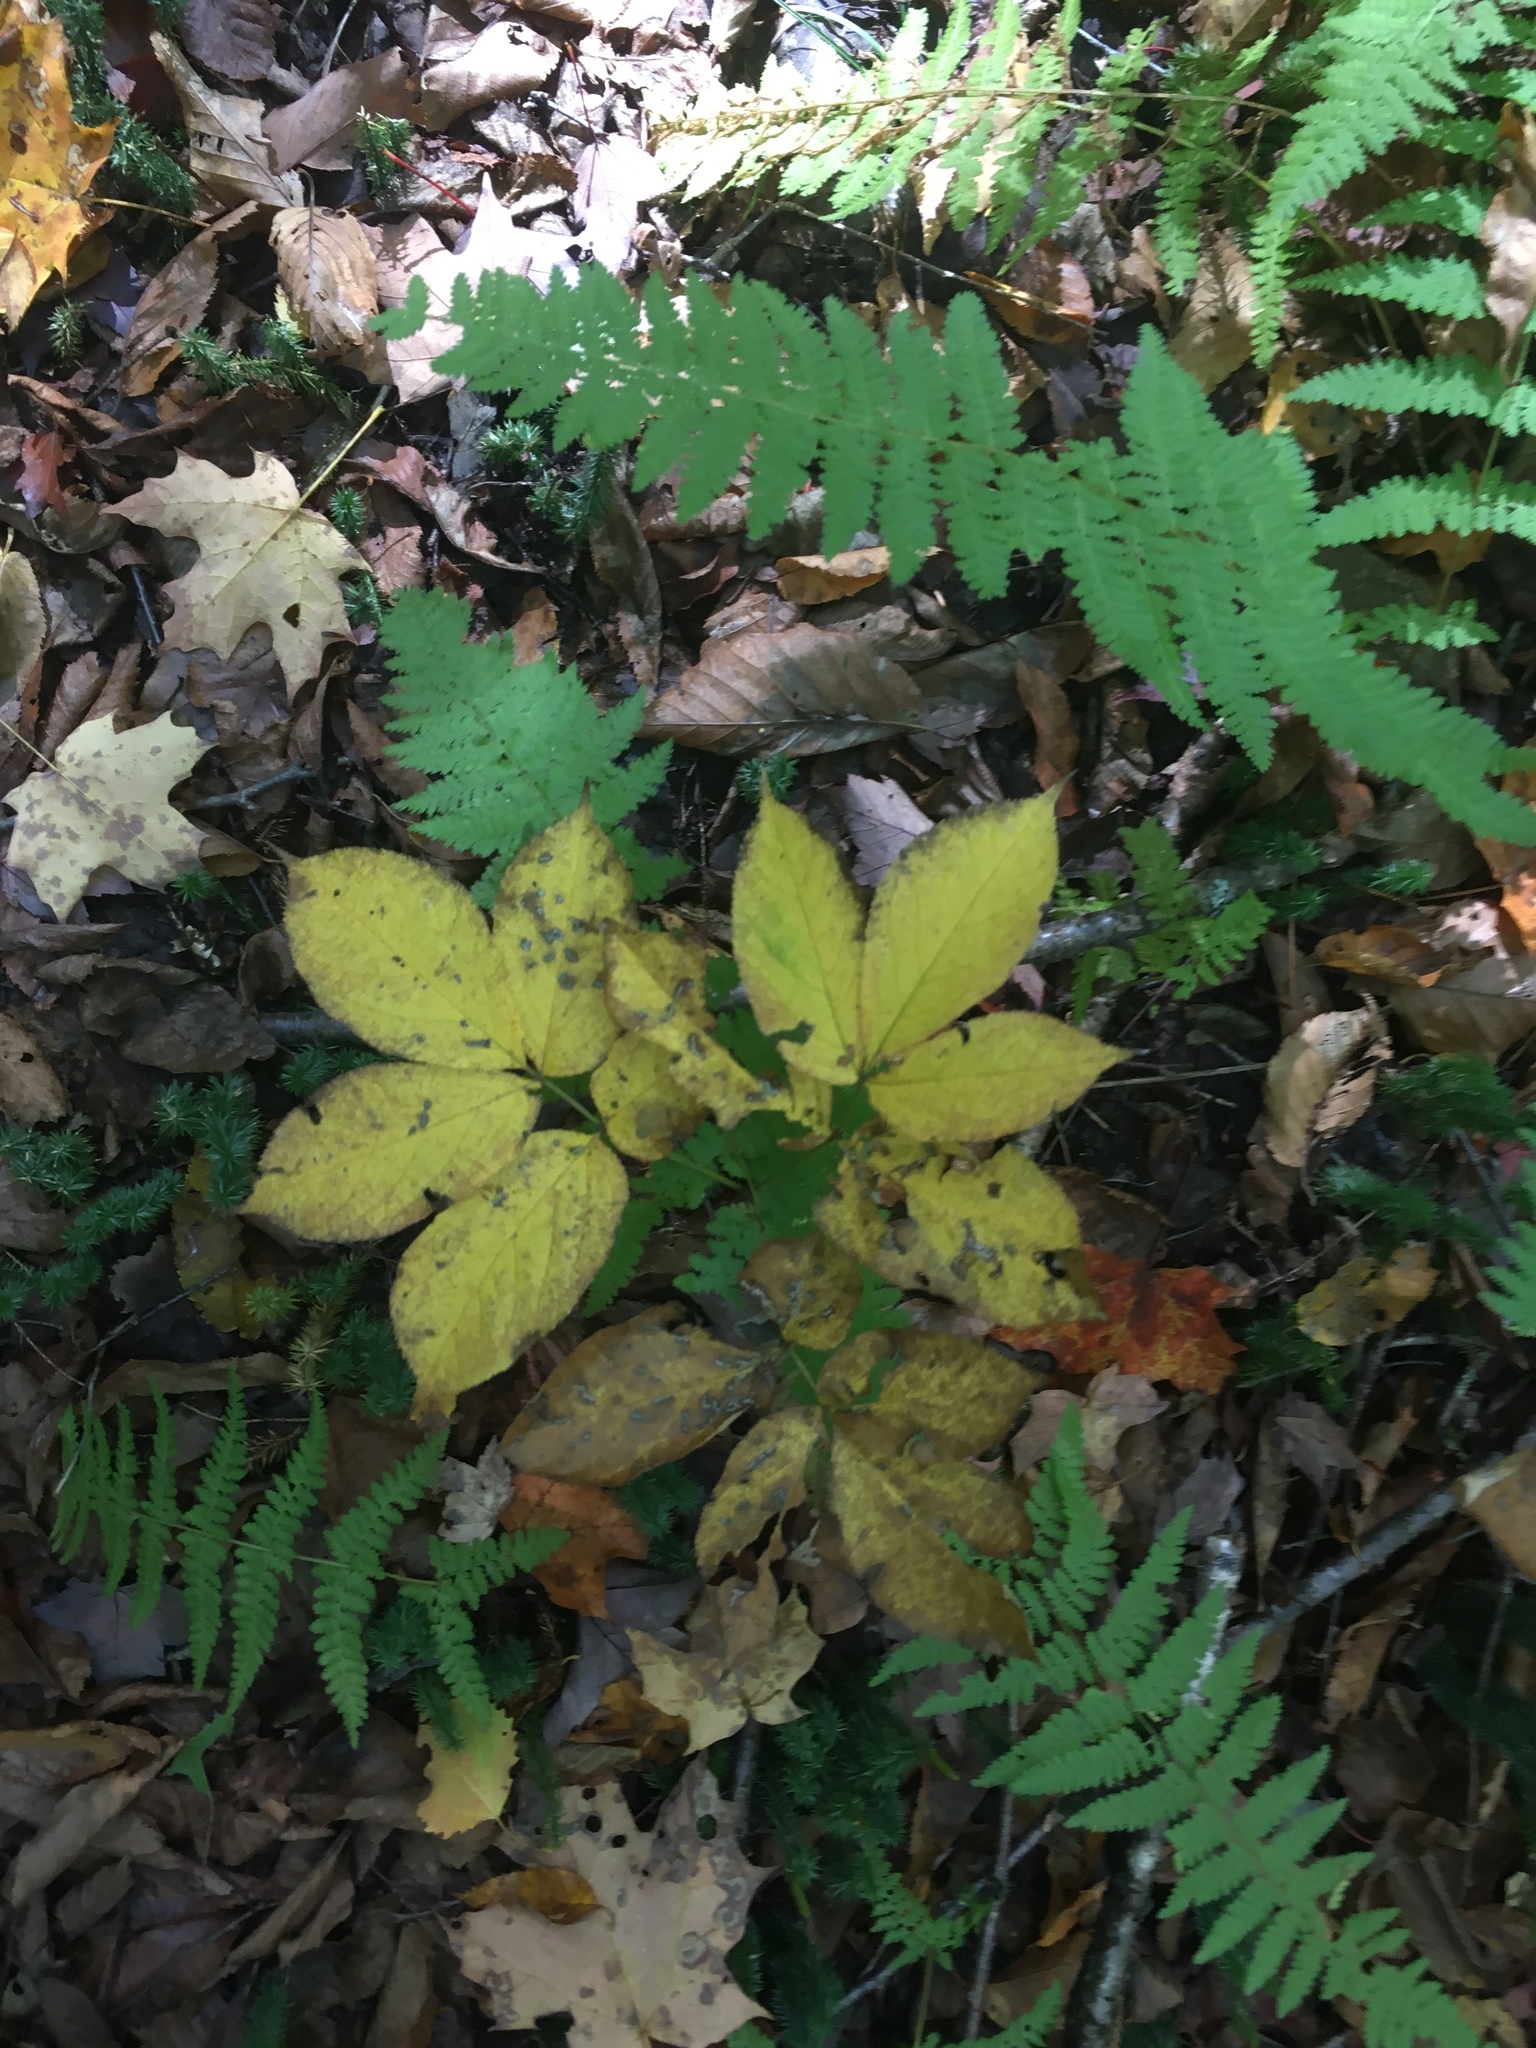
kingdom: Plantae
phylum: Tracheophyta
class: Magnoliopsida
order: Apiales
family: Araliaceae
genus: Aralia
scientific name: Aralia nudicaulis
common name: Wild sarsaparilla
